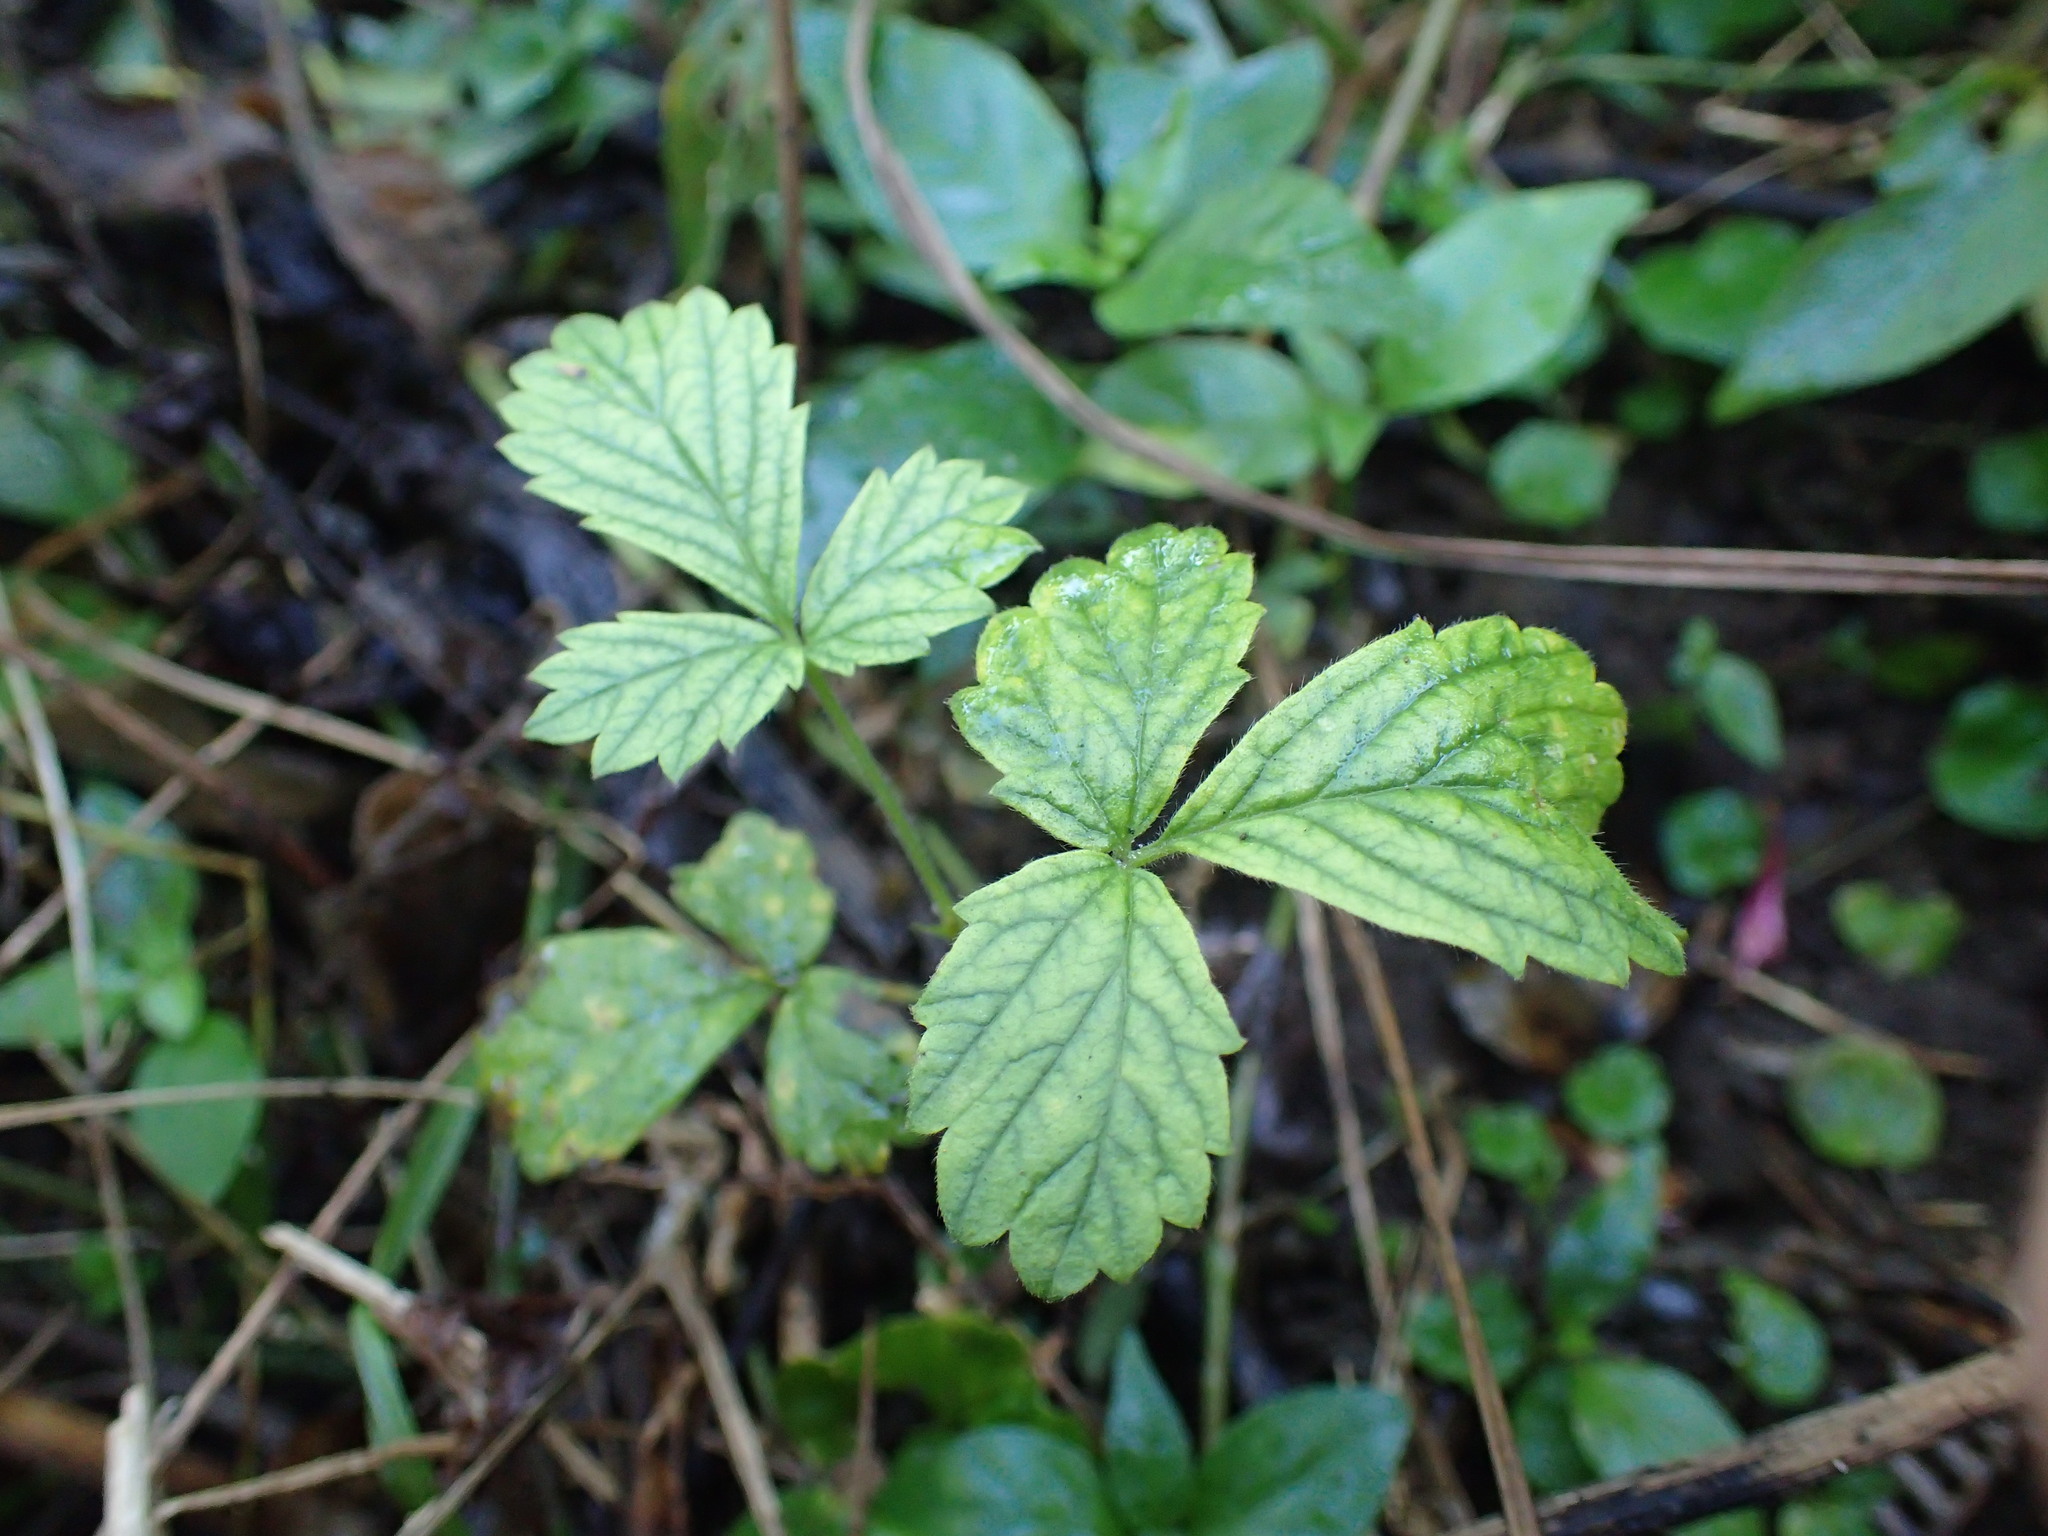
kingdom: Plantae
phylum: Tracheophyta
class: Magnoliopsida
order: Rosales
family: Rosaceae
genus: Agrimonia
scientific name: Agrimonia bracteata
